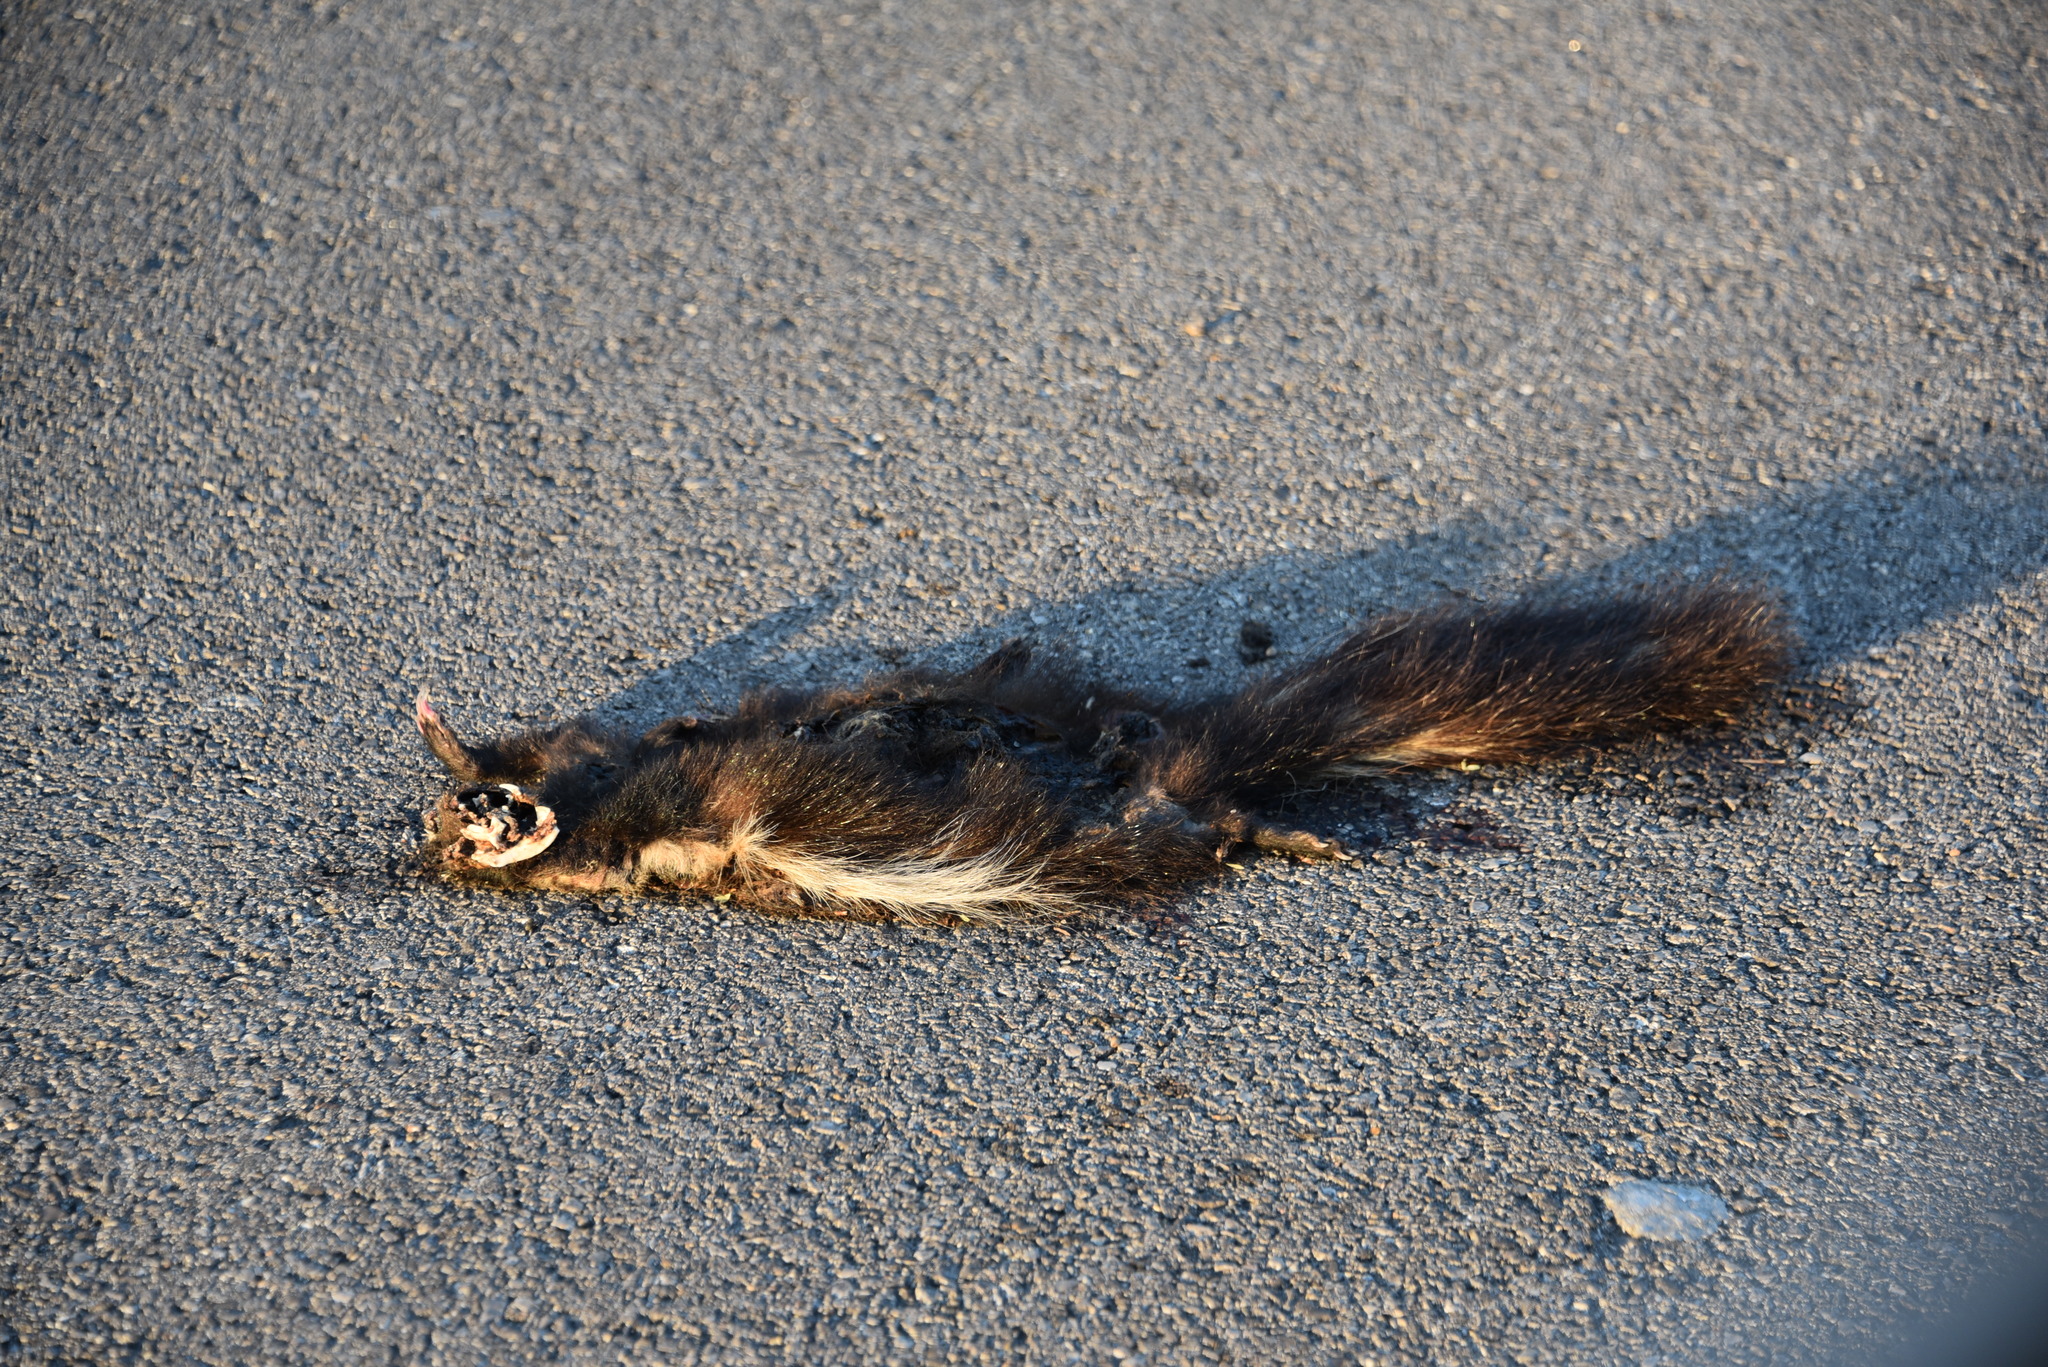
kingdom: Animalia
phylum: Chordata
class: Mammalia
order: Carnivora
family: Mephitidae
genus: Mephitis
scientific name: Mephitis mephitis
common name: Striped skunk
